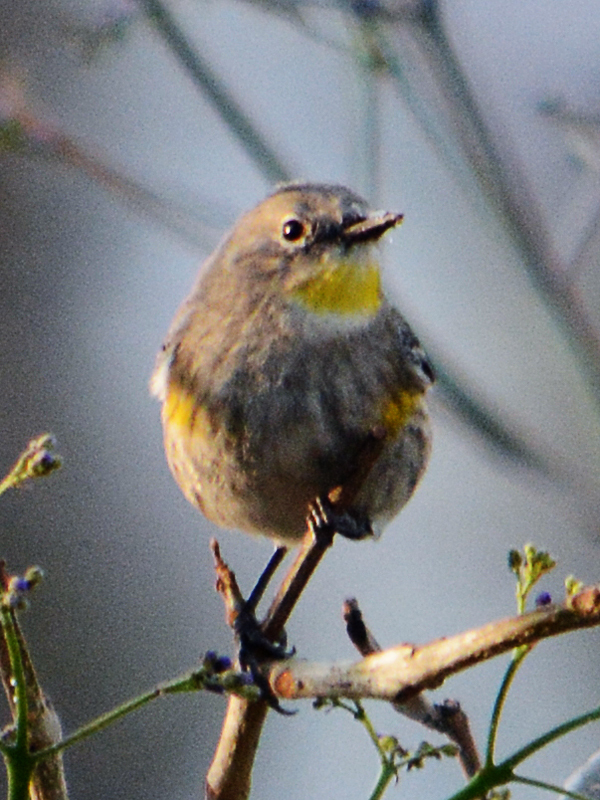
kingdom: Animalia
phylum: Chordata
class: Aves
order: Passeriformes
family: Parulidae
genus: Setophaga
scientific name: Setophaga auduboni
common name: Audubon's warbler
